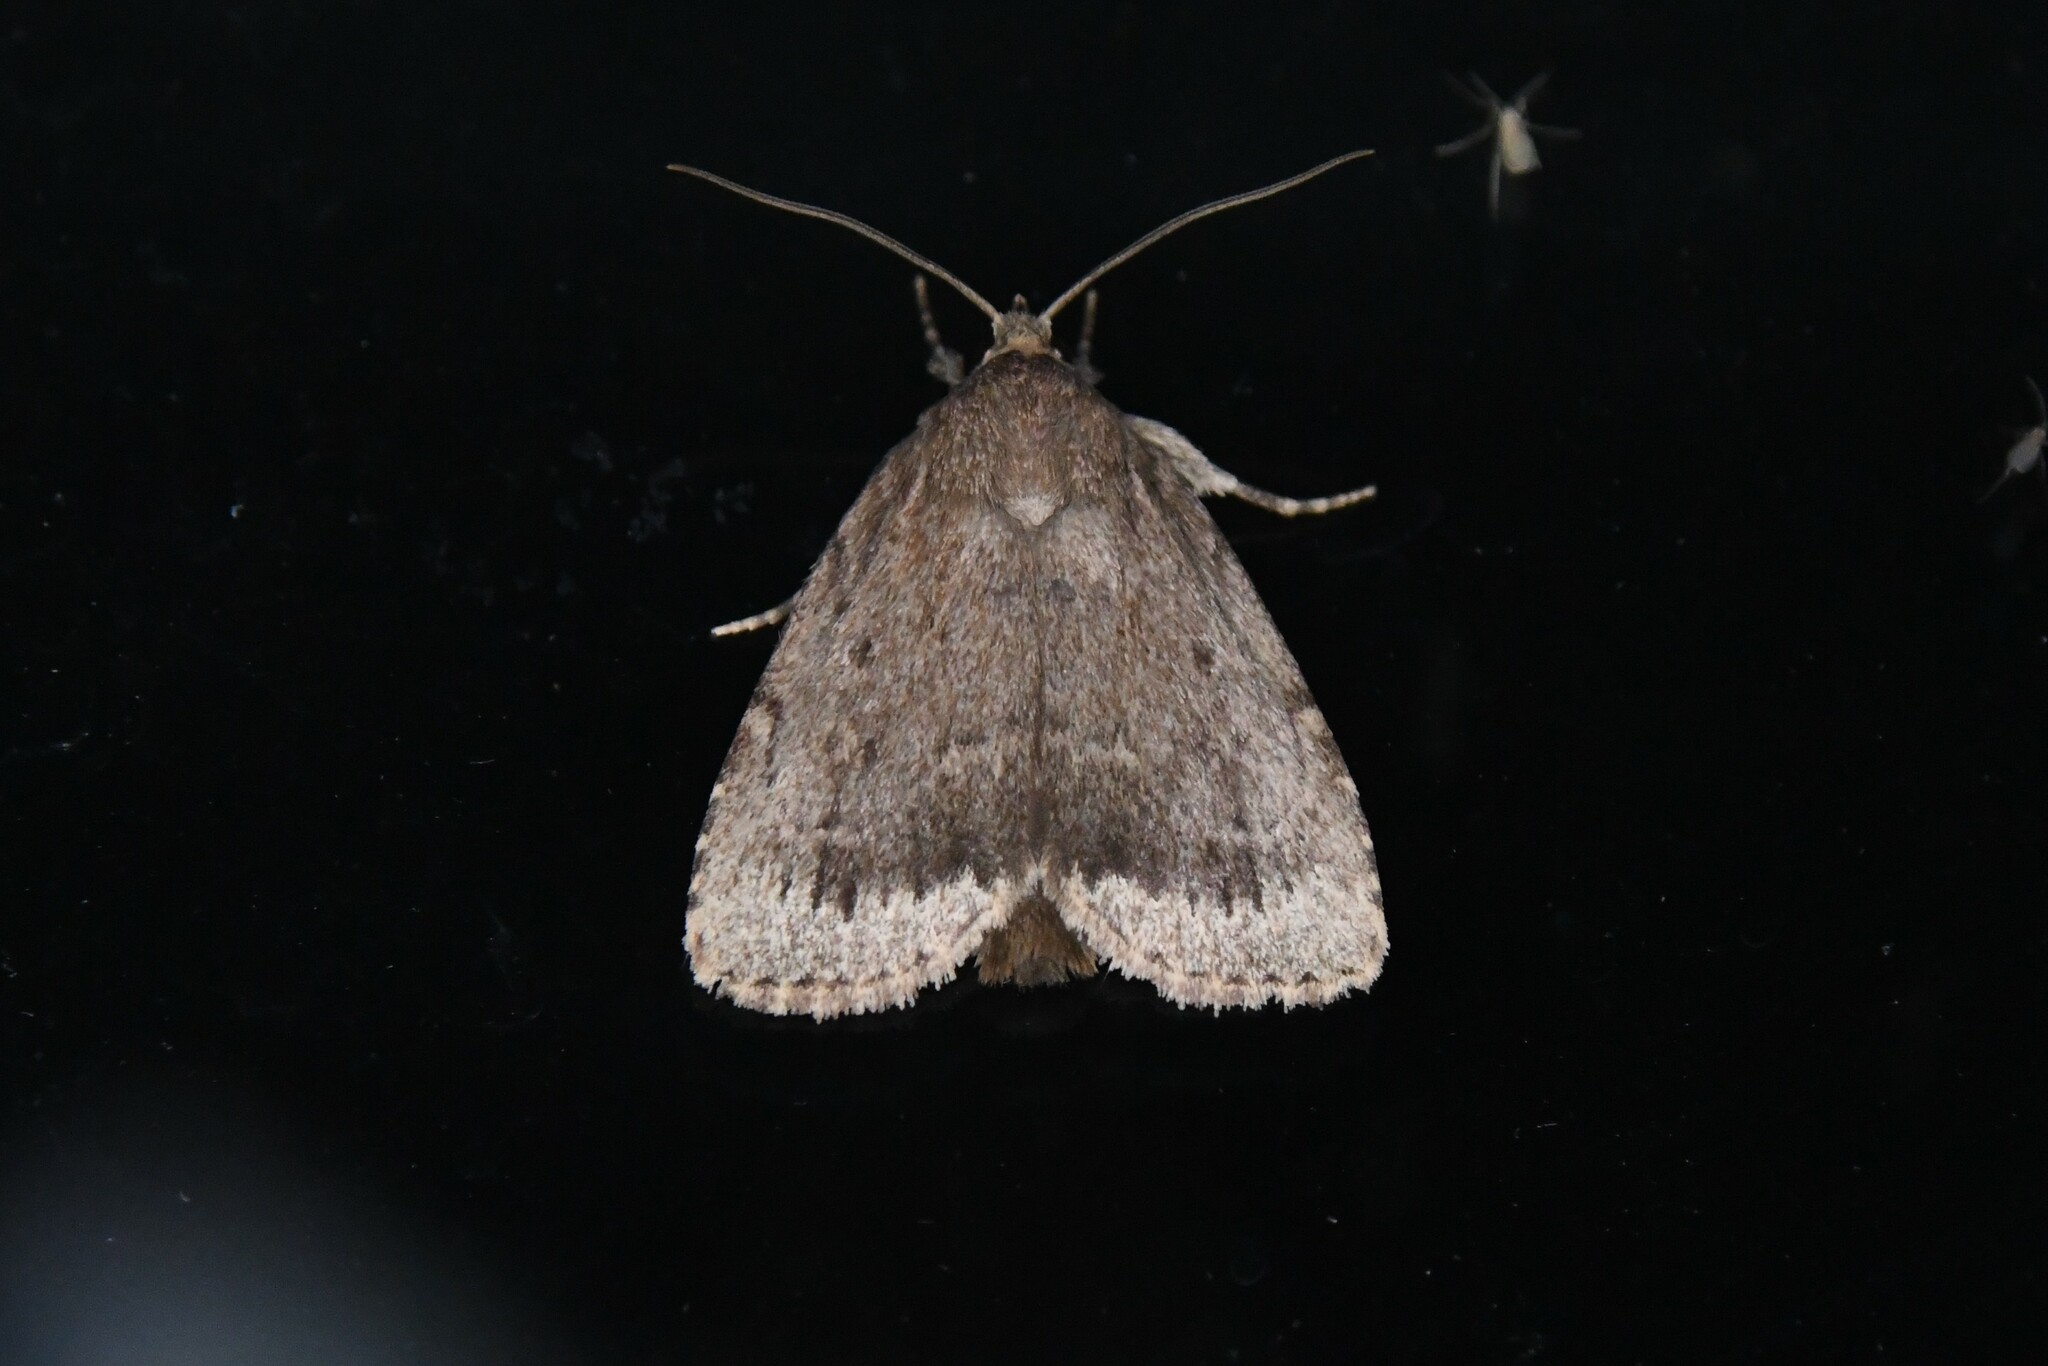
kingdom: Animalia
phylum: Arthropoda
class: Insecta
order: Lepidoptera
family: Noctuidae
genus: Amphipyra
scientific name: Amphipyra glabella
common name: Smooth amphipyra moth
